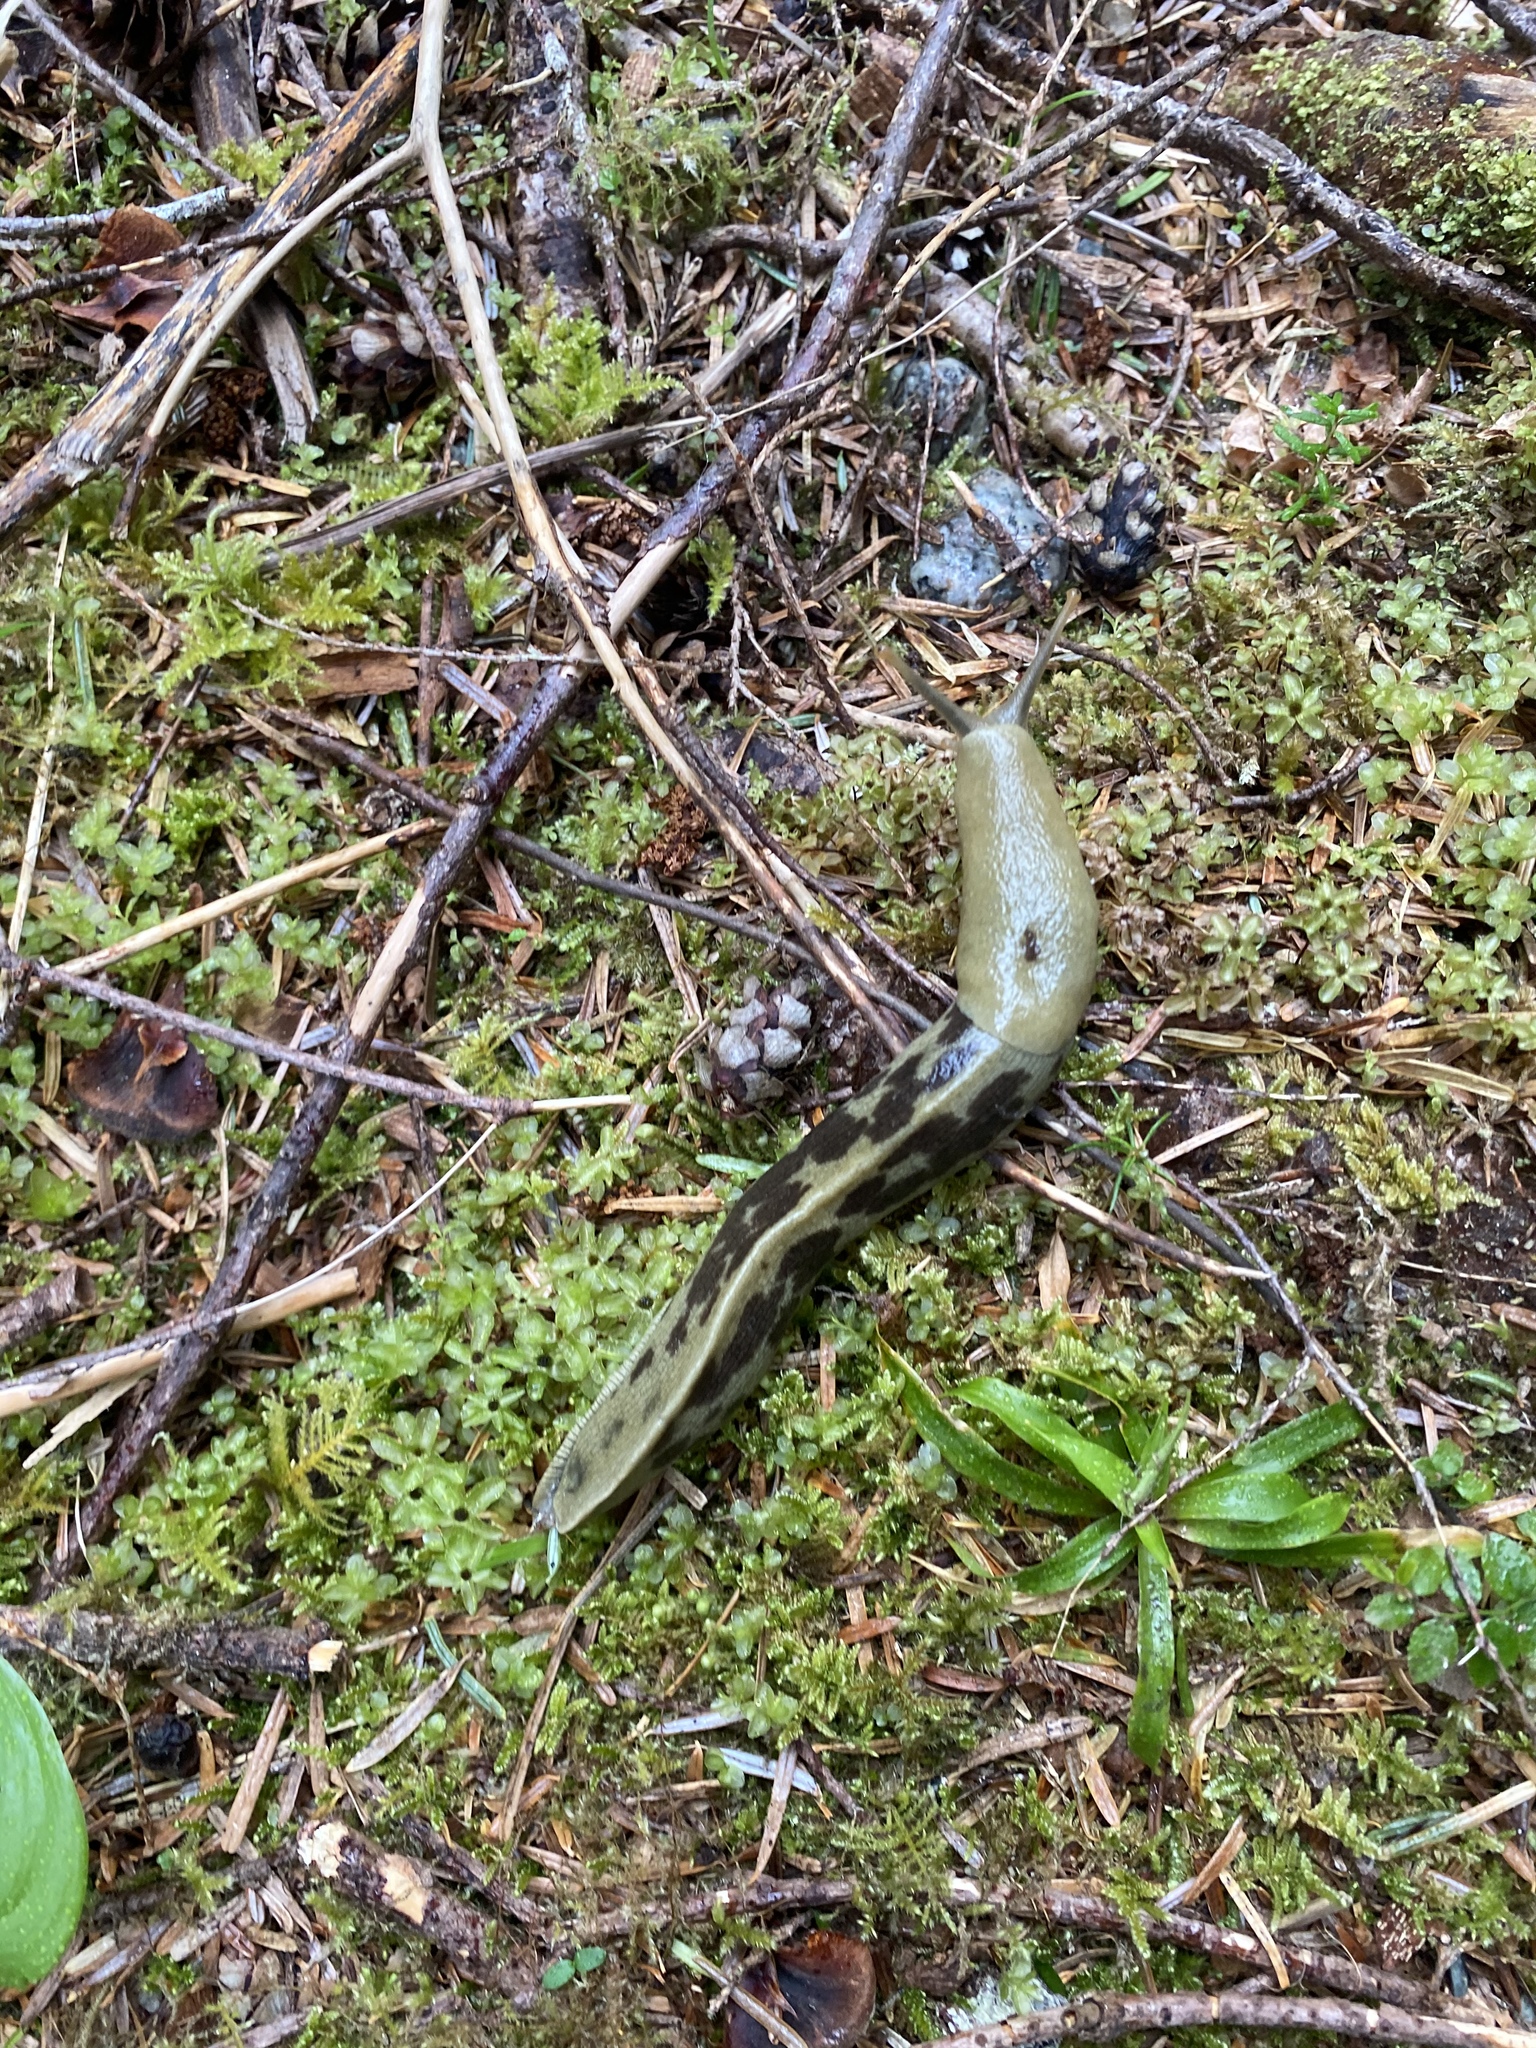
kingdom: Animalia
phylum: Mollusca
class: Gastropoda
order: Stylommatophora
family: Ariolimacidae
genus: Ariolimax
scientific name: Ariolimax columbianus
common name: Pacific banana slug
